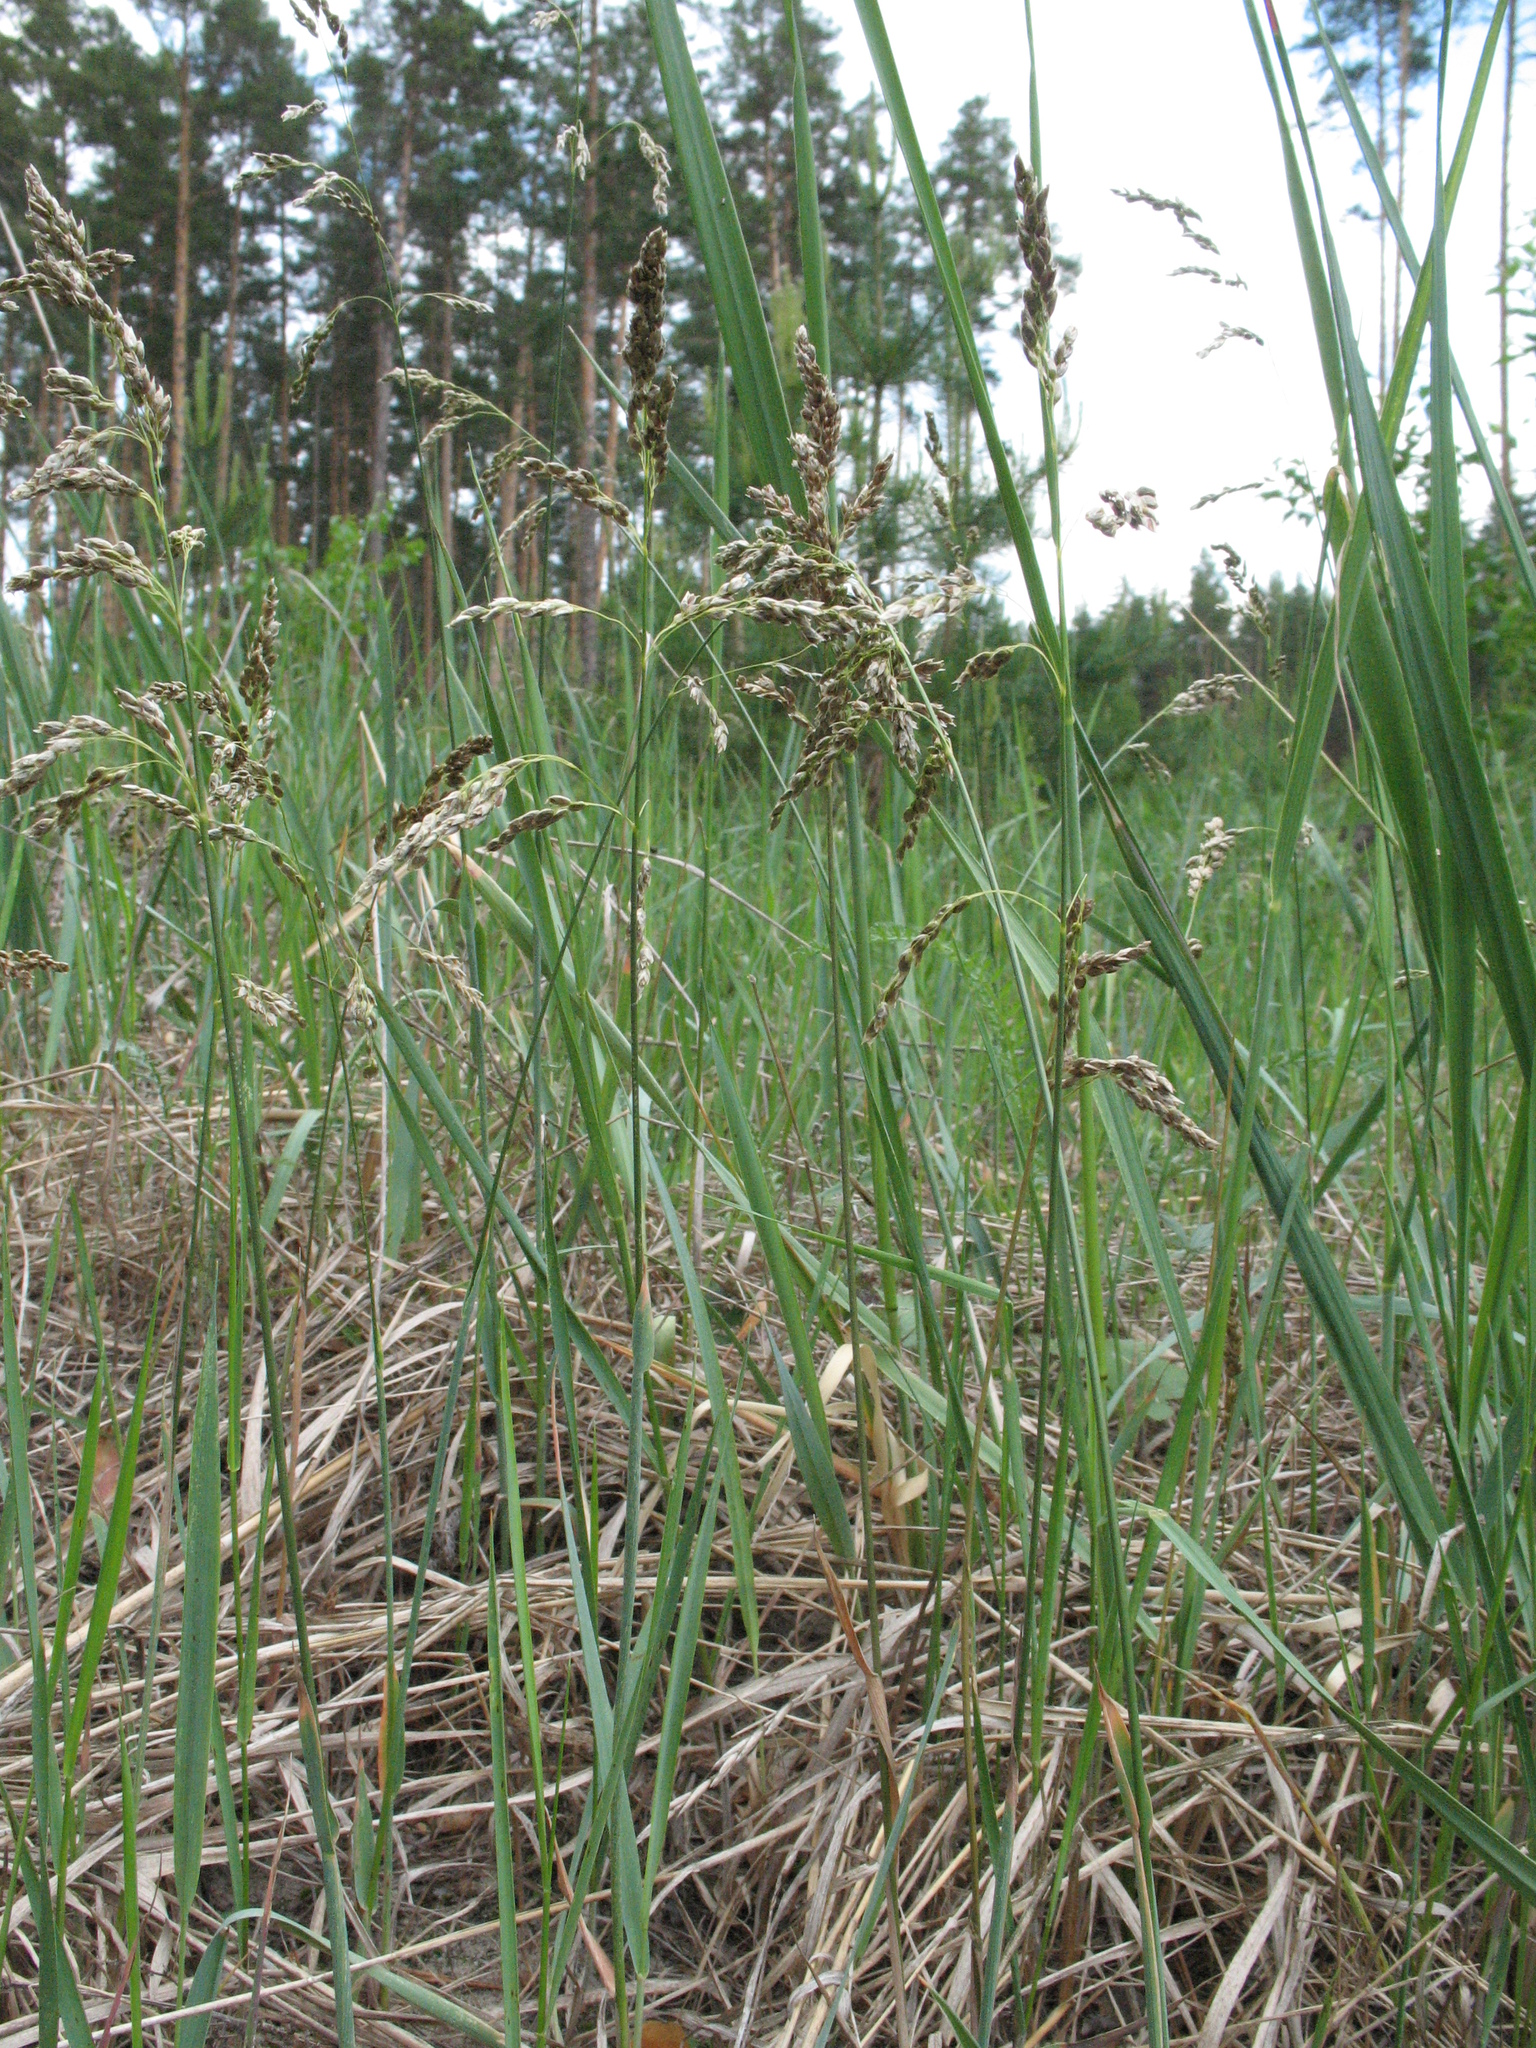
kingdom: Plantae
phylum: Tracheophyta
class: Liliopsida
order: Poales
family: Poaceae
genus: Anthoxanthum
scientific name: Anthoxanthum nitens
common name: Holy grass
